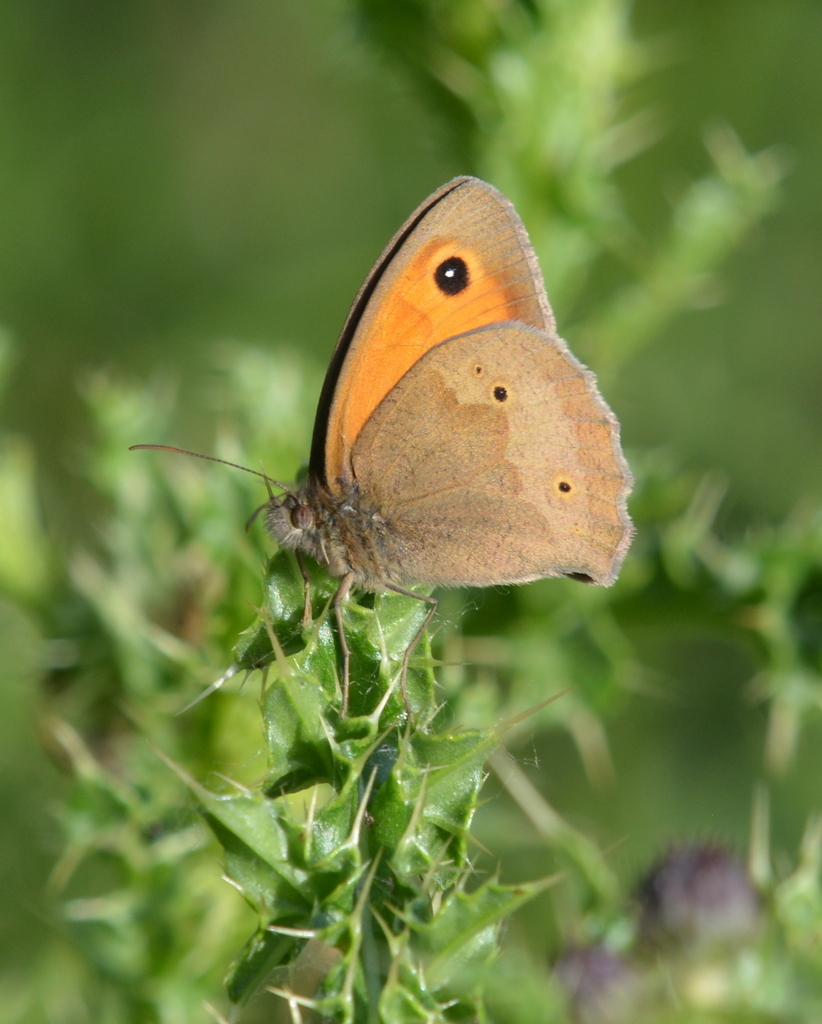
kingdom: Animalia
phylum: Arthropoda
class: Insecta
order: Lepidoptera
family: Nymphalidae
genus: Maniola
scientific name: Maniola jurtina
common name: Meadow brown
